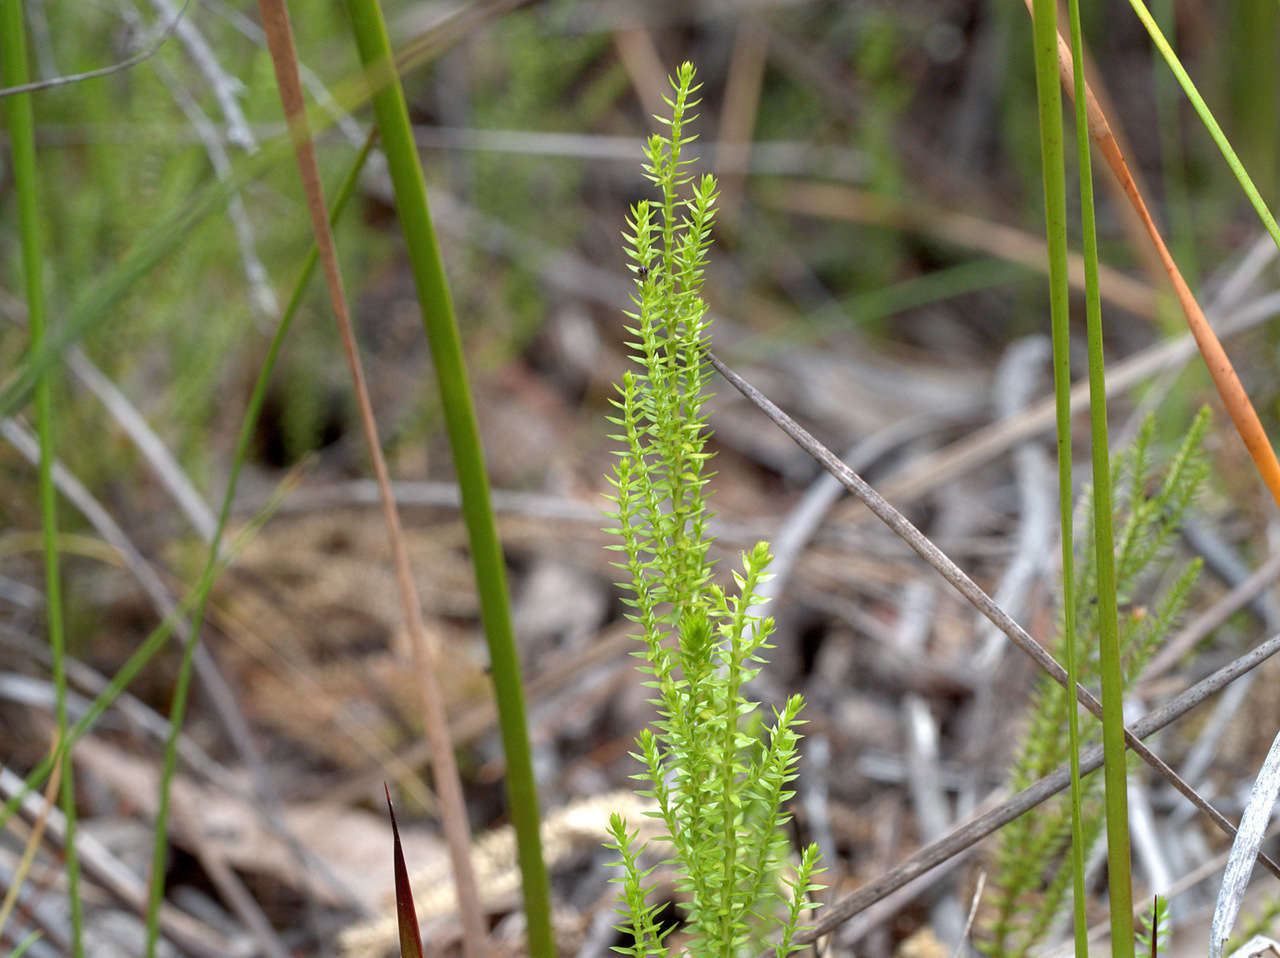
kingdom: Plantae
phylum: Tracheophyta
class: Lycopodiopsida
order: Selaginellales
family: Selaginellaceae
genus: Selaginella
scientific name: Selaginella uliginosa
